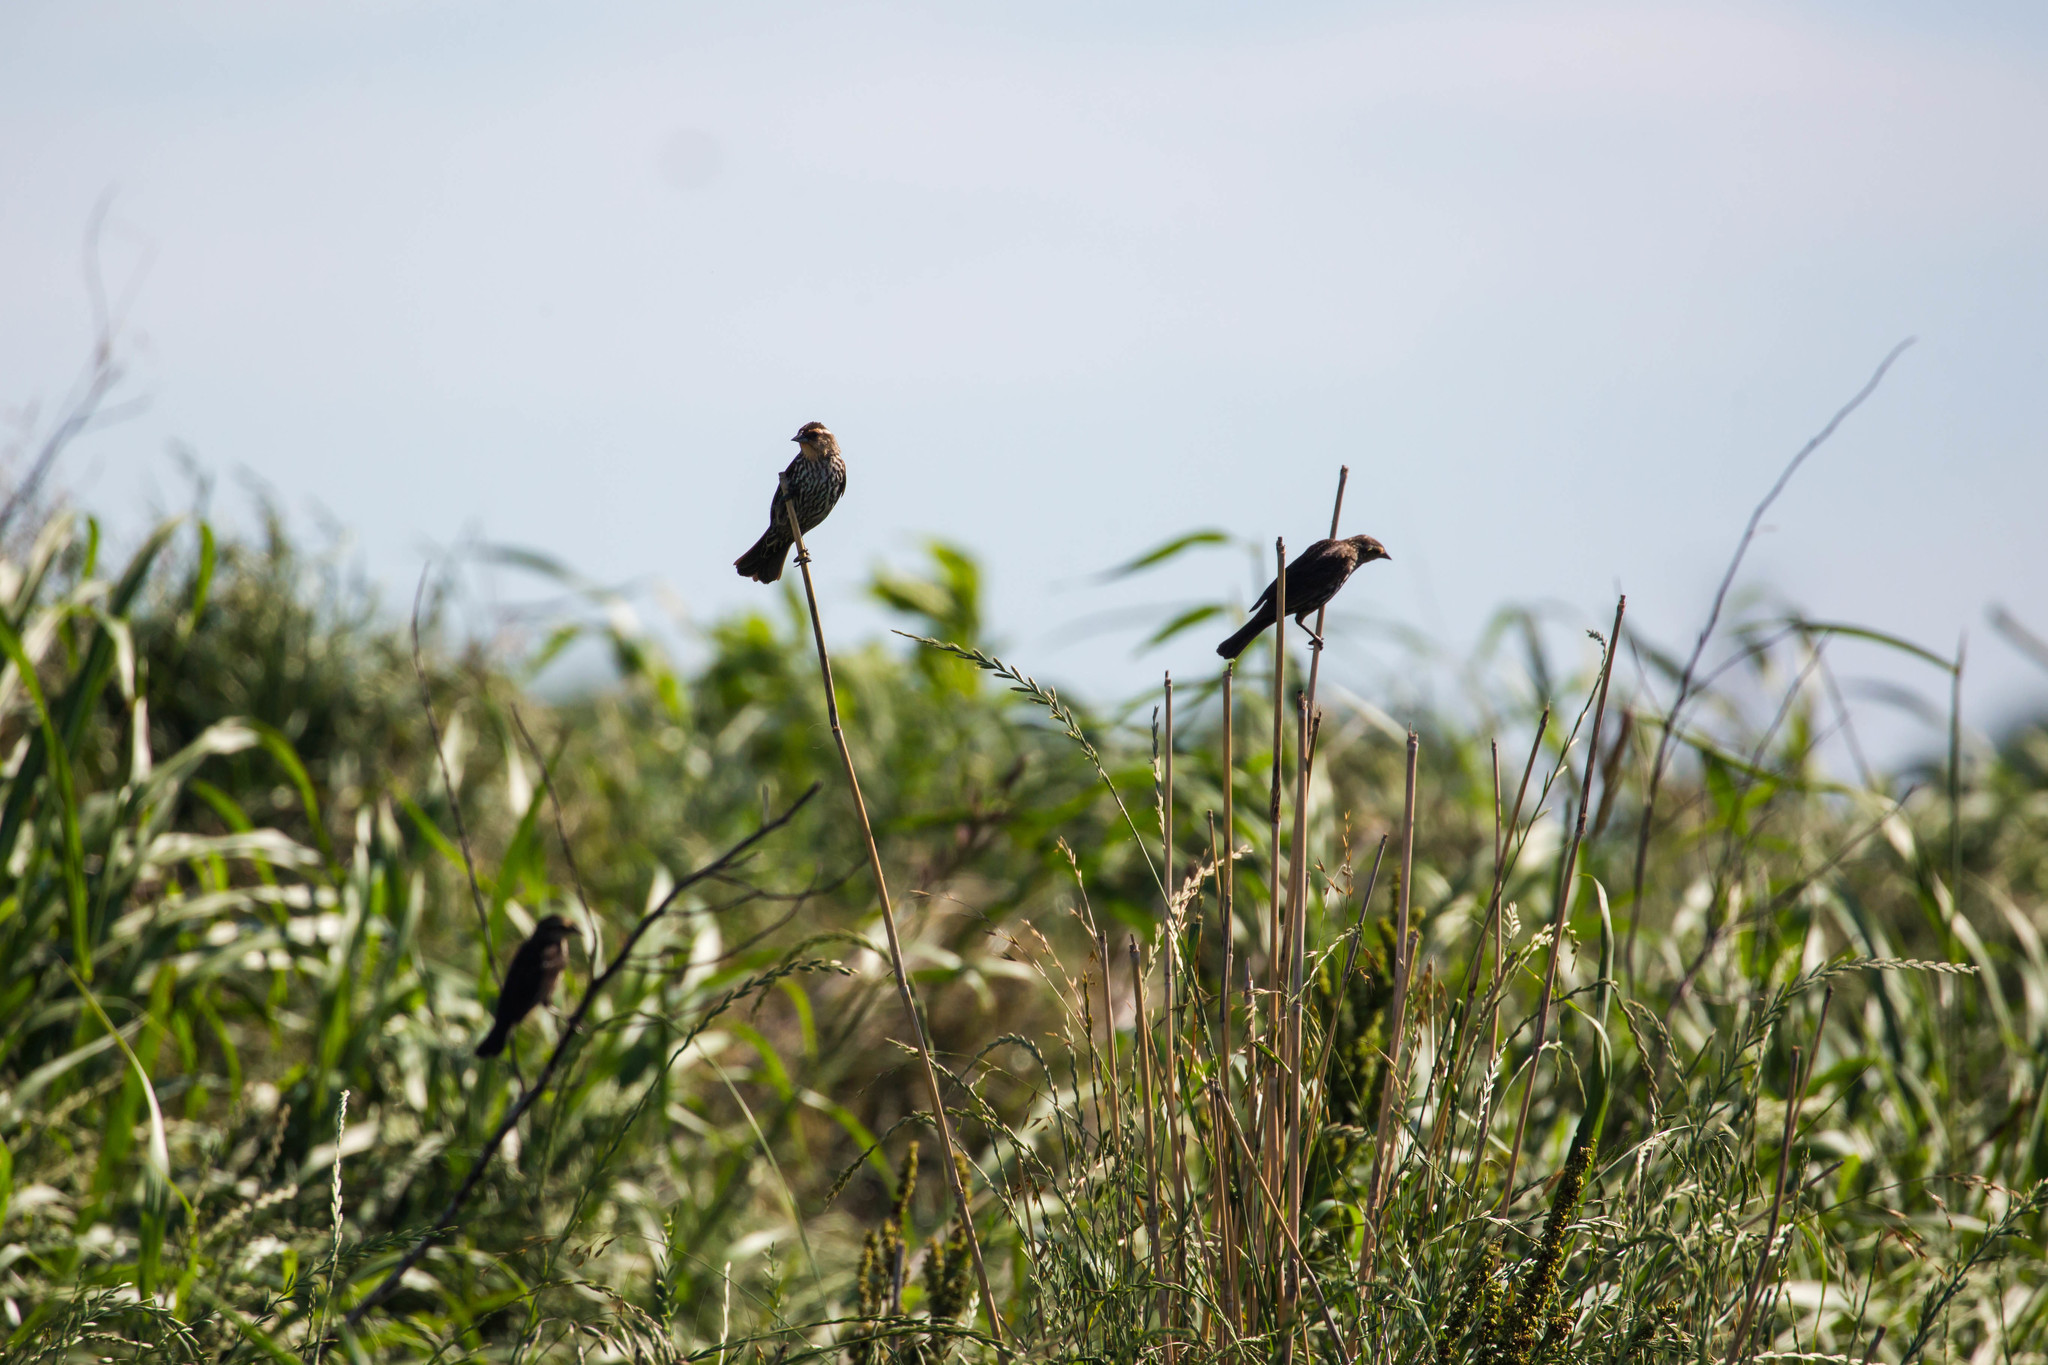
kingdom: Animalia
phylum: Chordata
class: Aves
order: Passeriformes
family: Icteridae
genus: Agelaius
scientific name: Agelaius phoeniceus
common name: Red-winged blackbird
